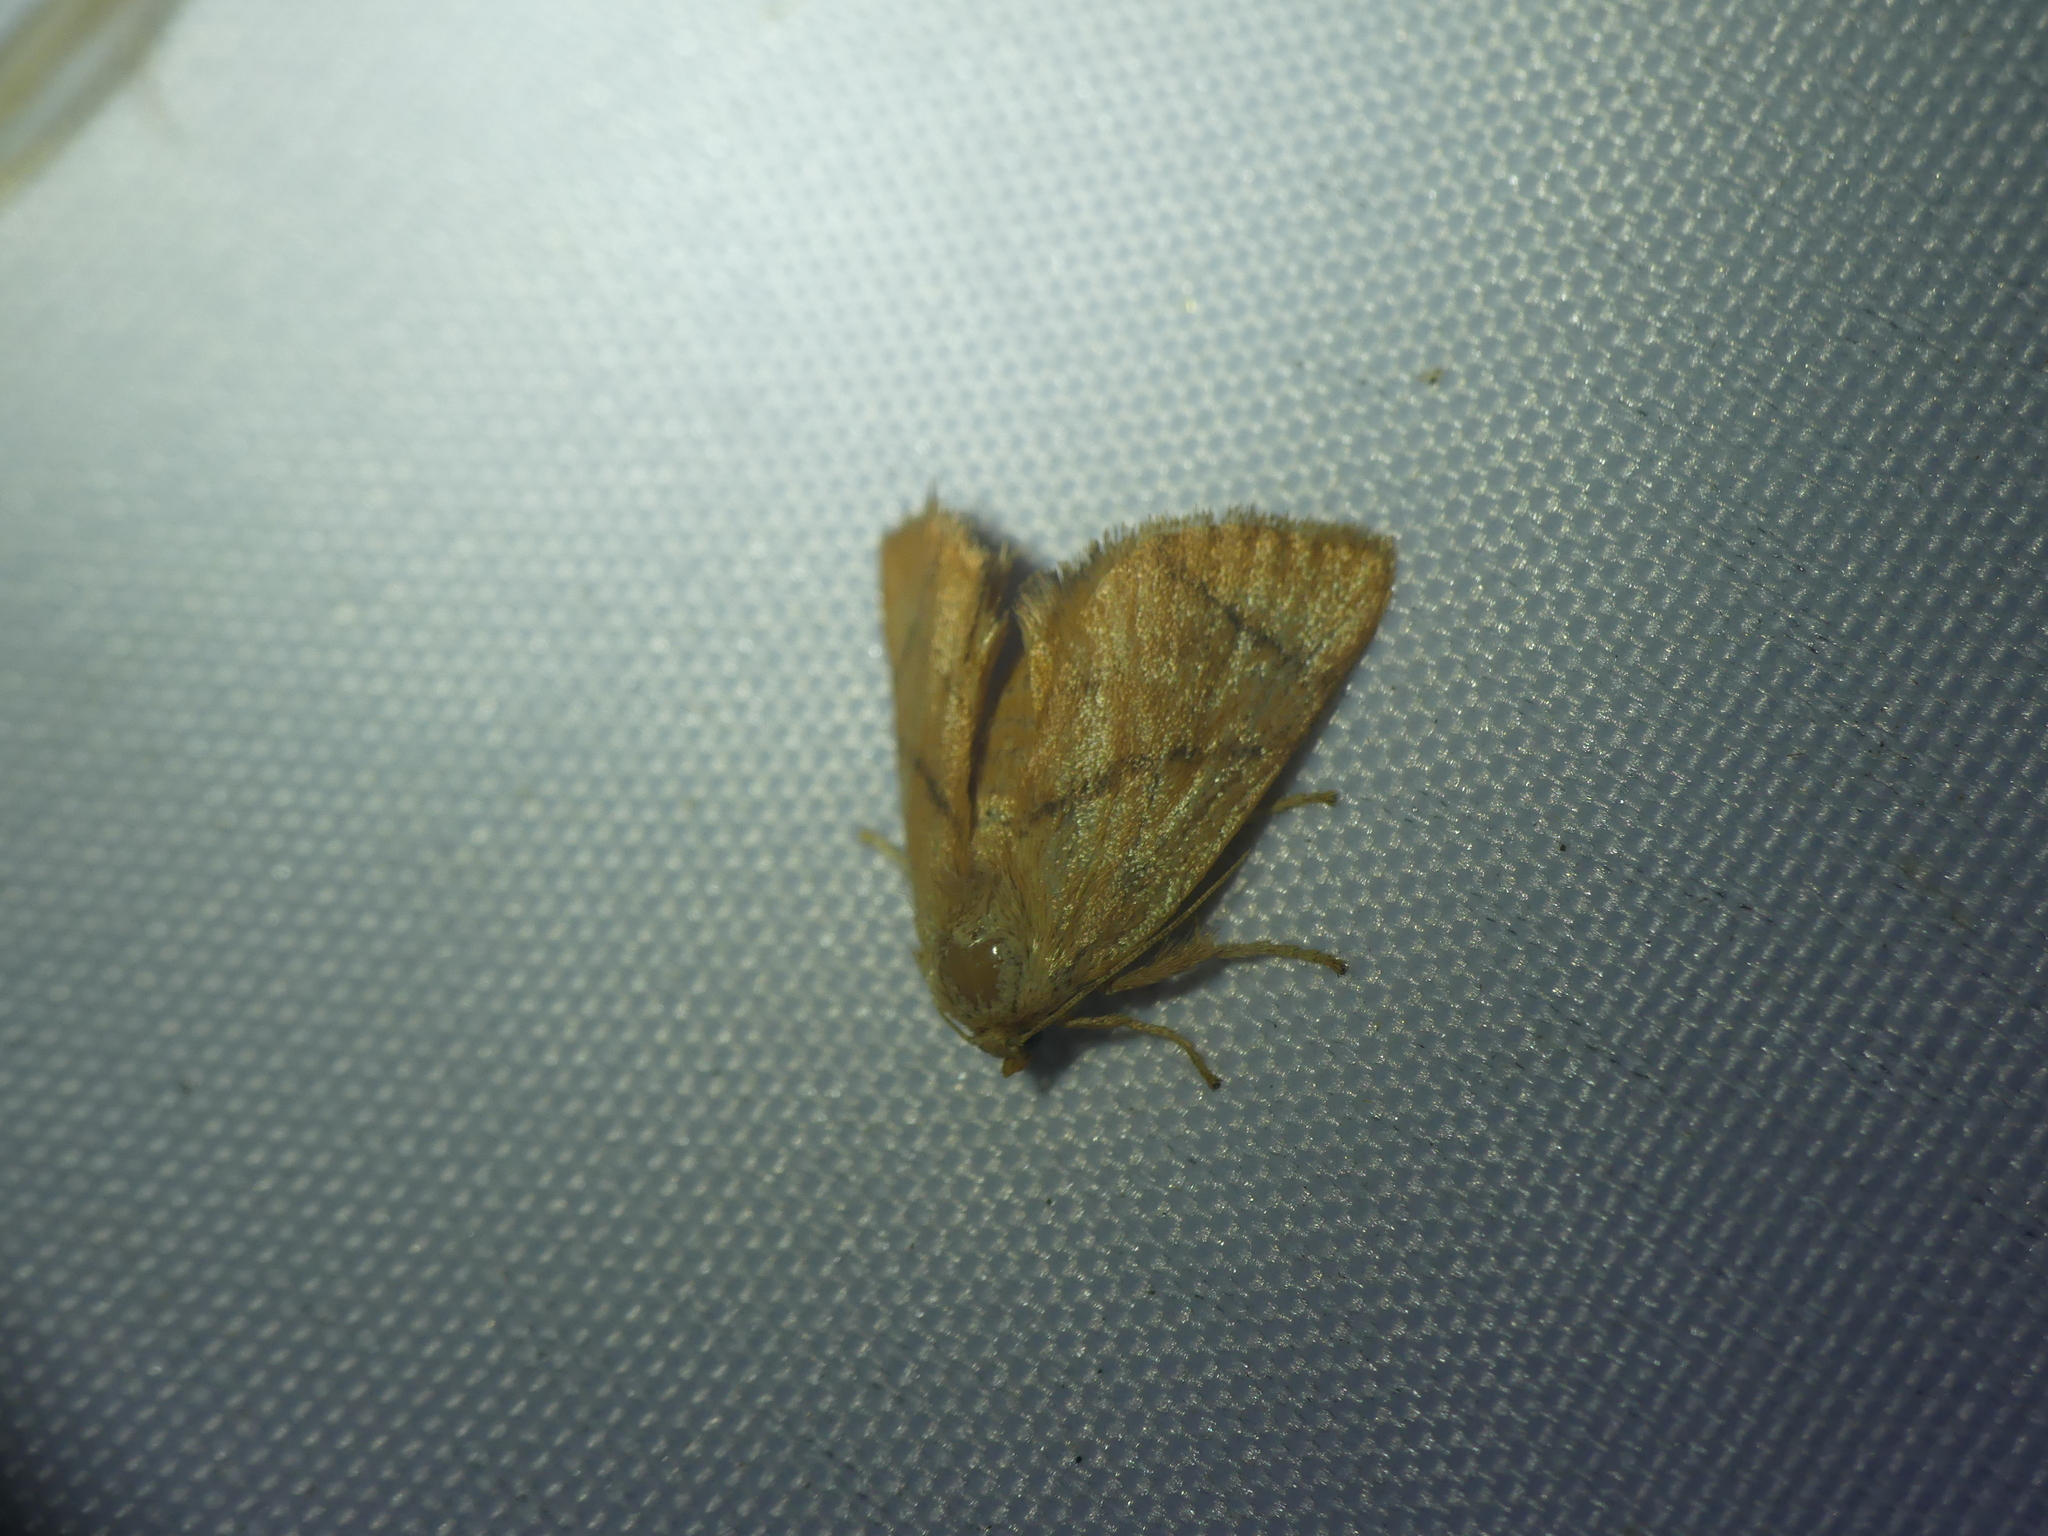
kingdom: Animalia
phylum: Arthropoda
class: Insecta
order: Lepidoptera
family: Limacodidae
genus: Apoda
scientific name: Apoda limacodes
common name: Festoon
